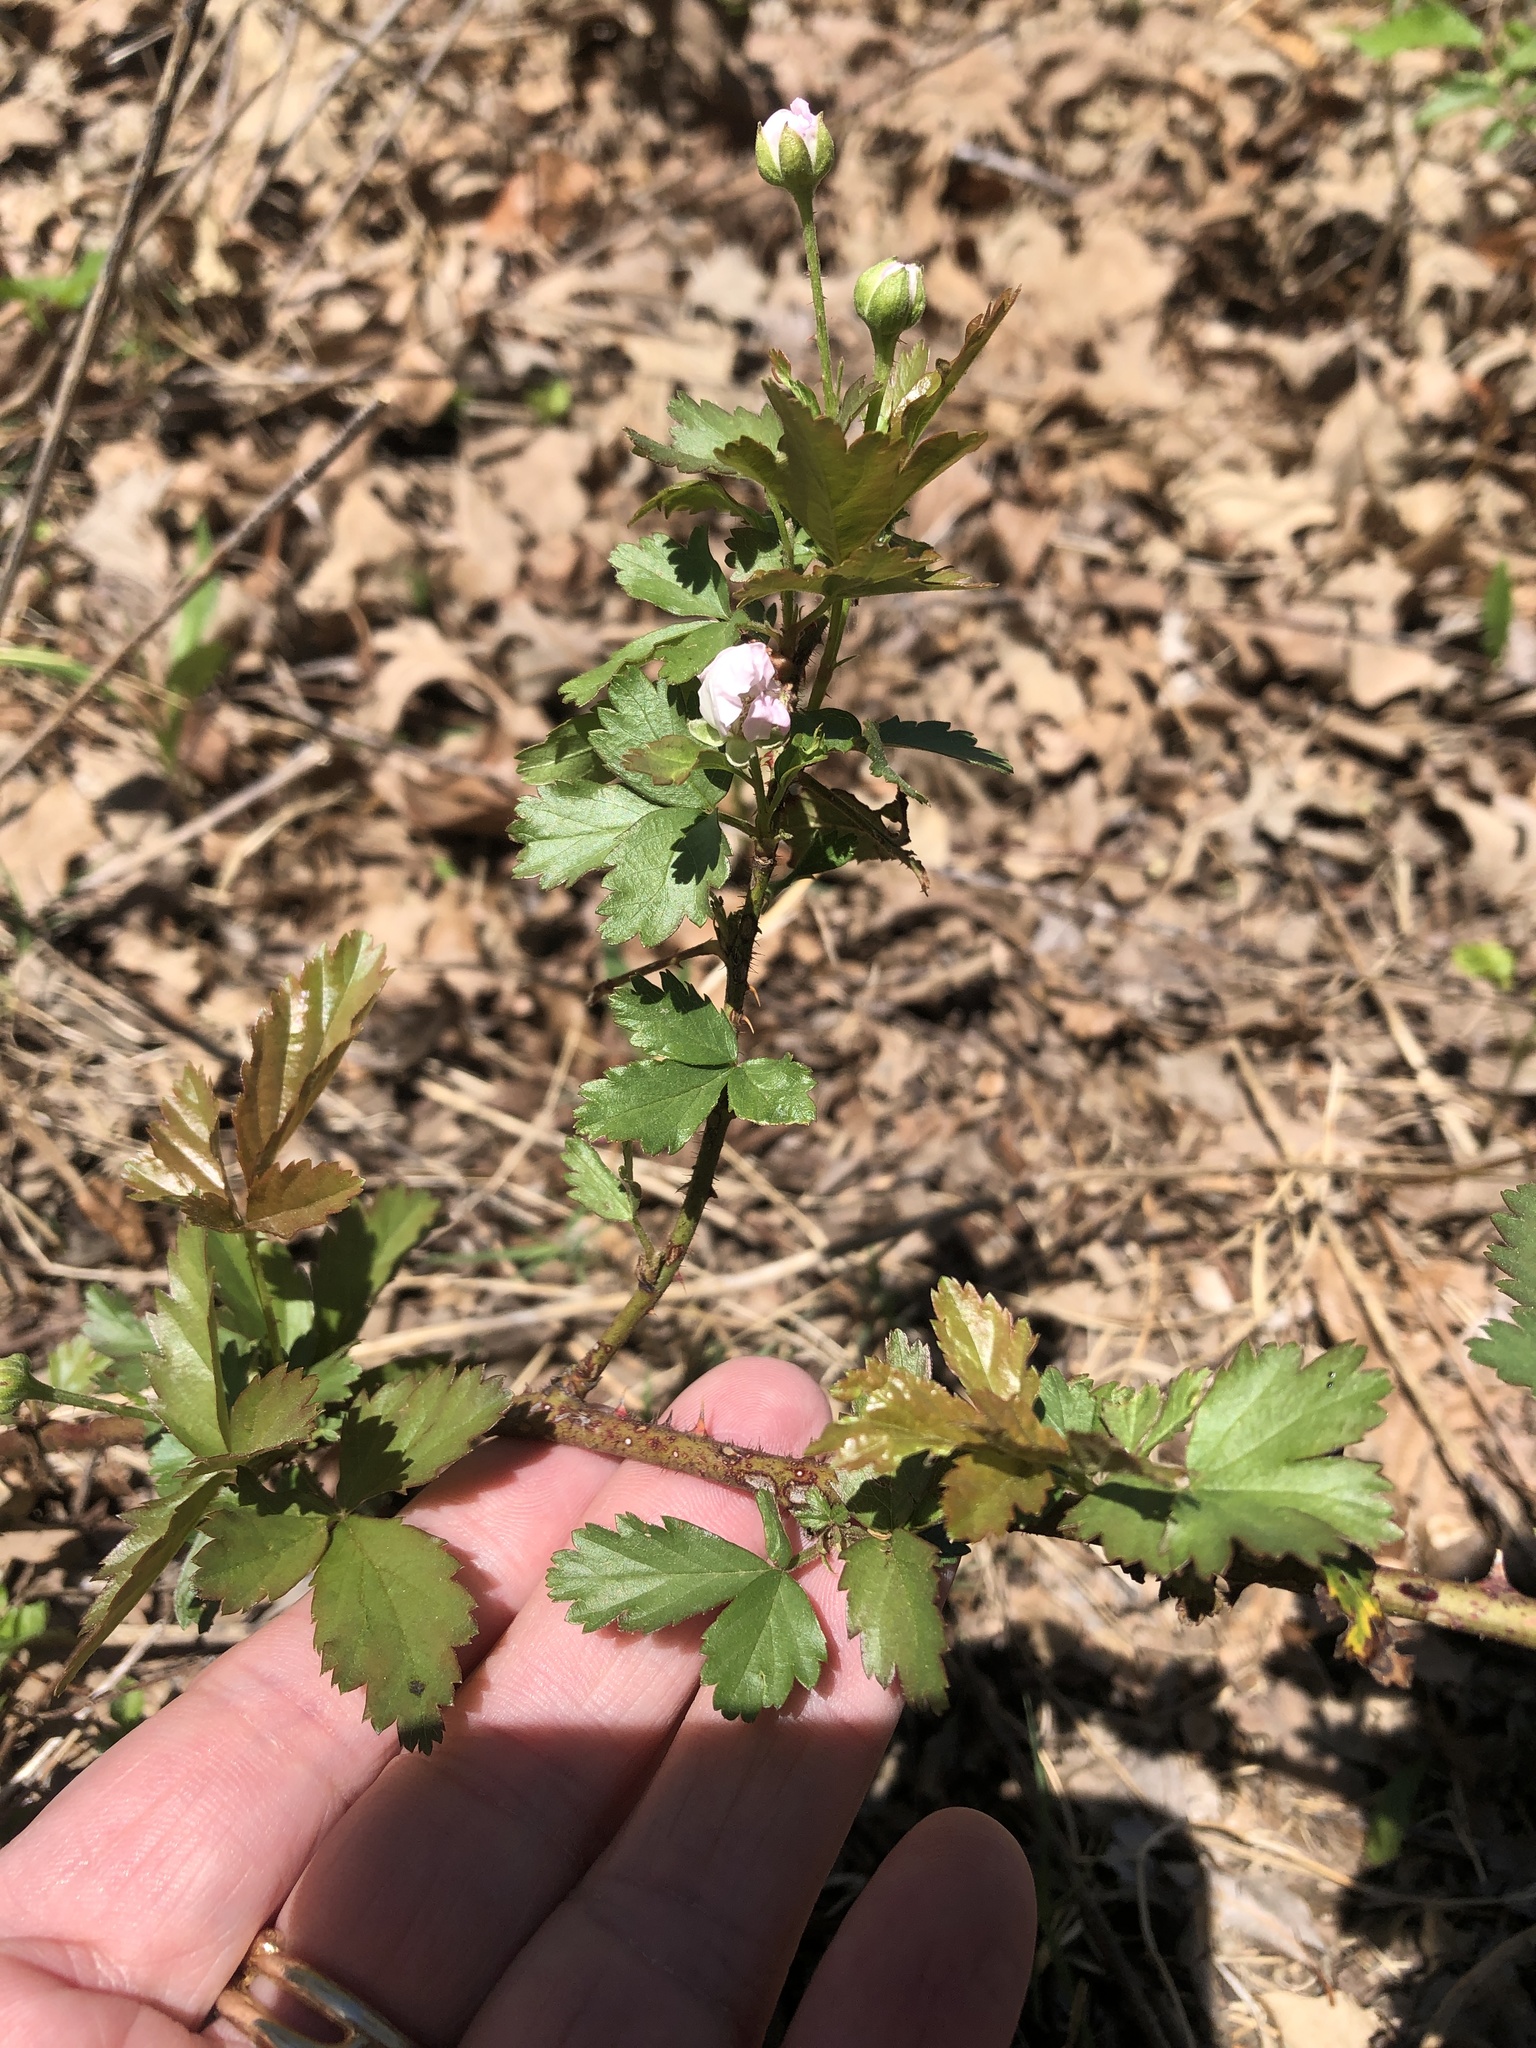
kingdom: Plantae
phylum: Tracheophyta
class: Magnoliopsida
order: Rosales
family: Rosaceae
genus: Rubus
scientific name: Rubus trivialis
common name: Southern dewberry
